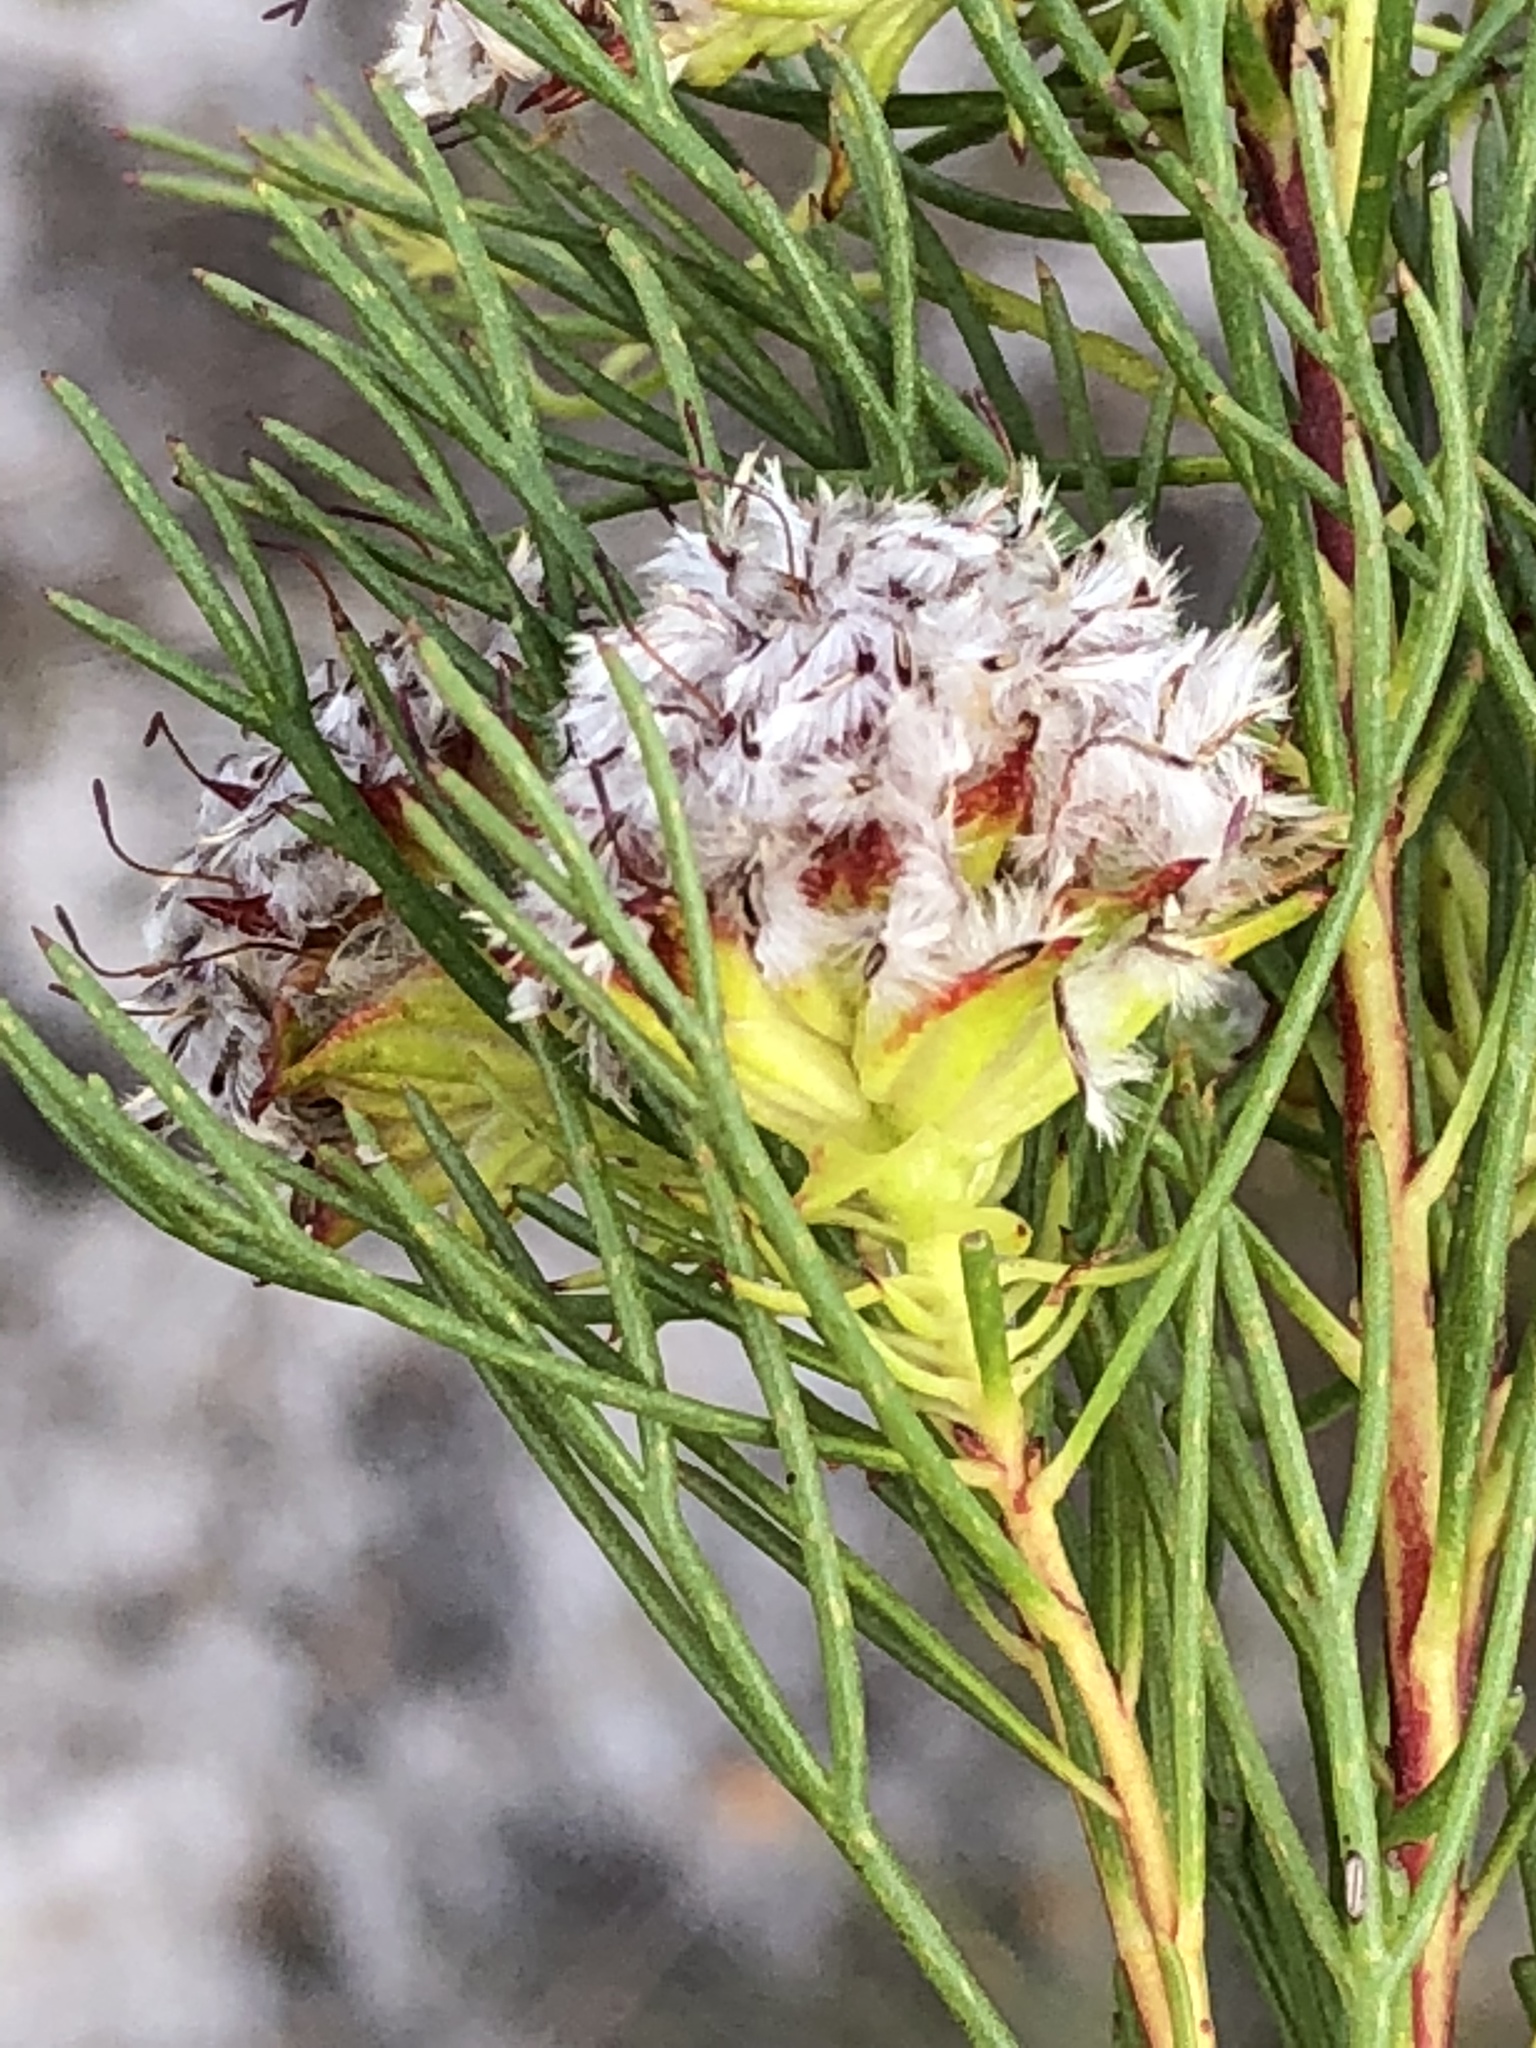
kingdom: Plantae
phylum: Tracheophyta
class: Magnoliopsida
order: Proteales
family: Proteaceae
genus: Serruria
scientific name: Serruria nervosa
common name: Fluted spiderhead
